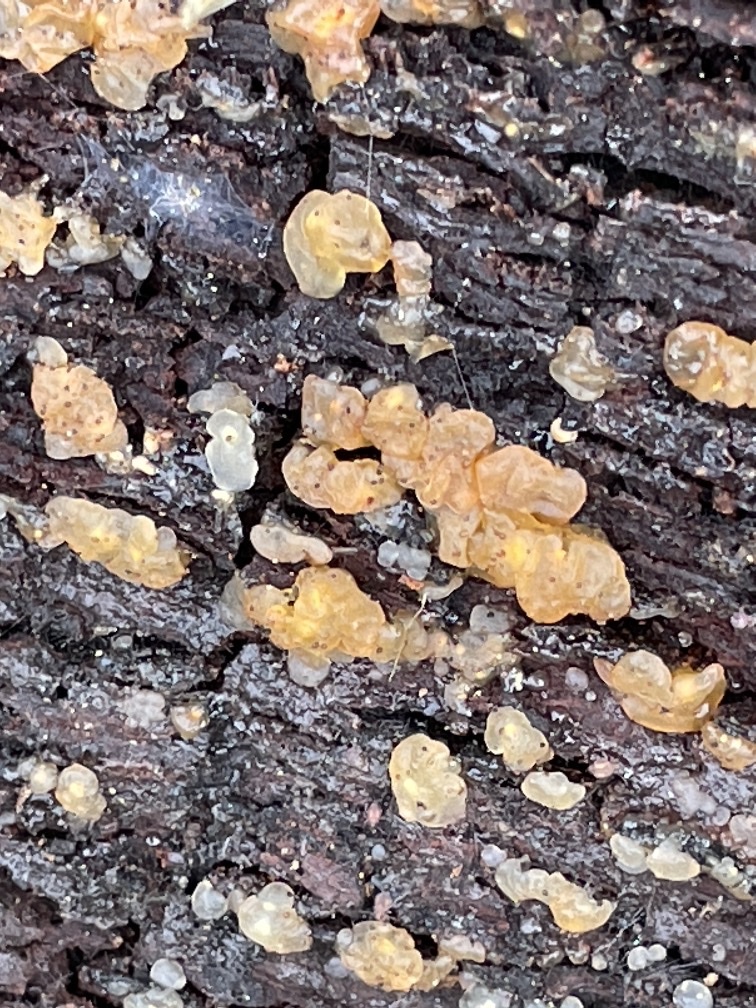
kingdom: Fungi
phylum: Basidiomycota
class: Agaricomycetes
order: Auriculariales
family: Hyaloriaceae
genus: Myxarium
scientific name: Myxarium nucleatum
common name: Crystal brain fungus
